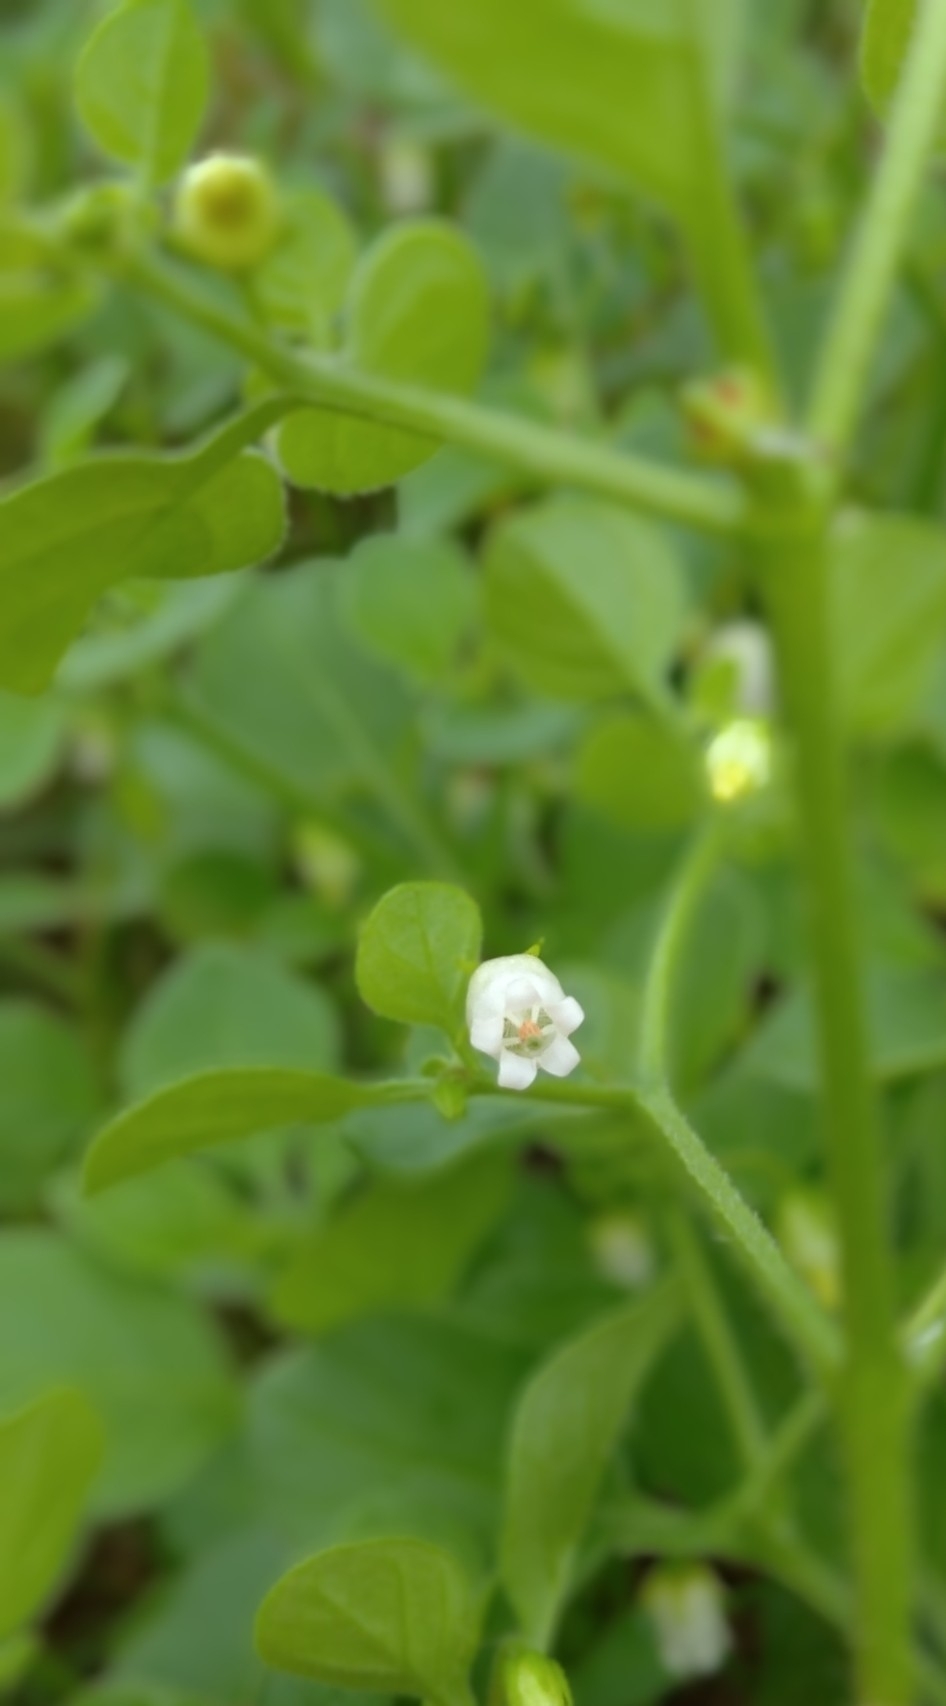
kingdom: Plantae
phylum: Tracheophyta
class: Magnoliopsida
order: Solanales
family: Solanaceae
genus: Salpichroa
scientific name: Salpichroa origanifolia
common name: Lily-of-the-valley-vine
